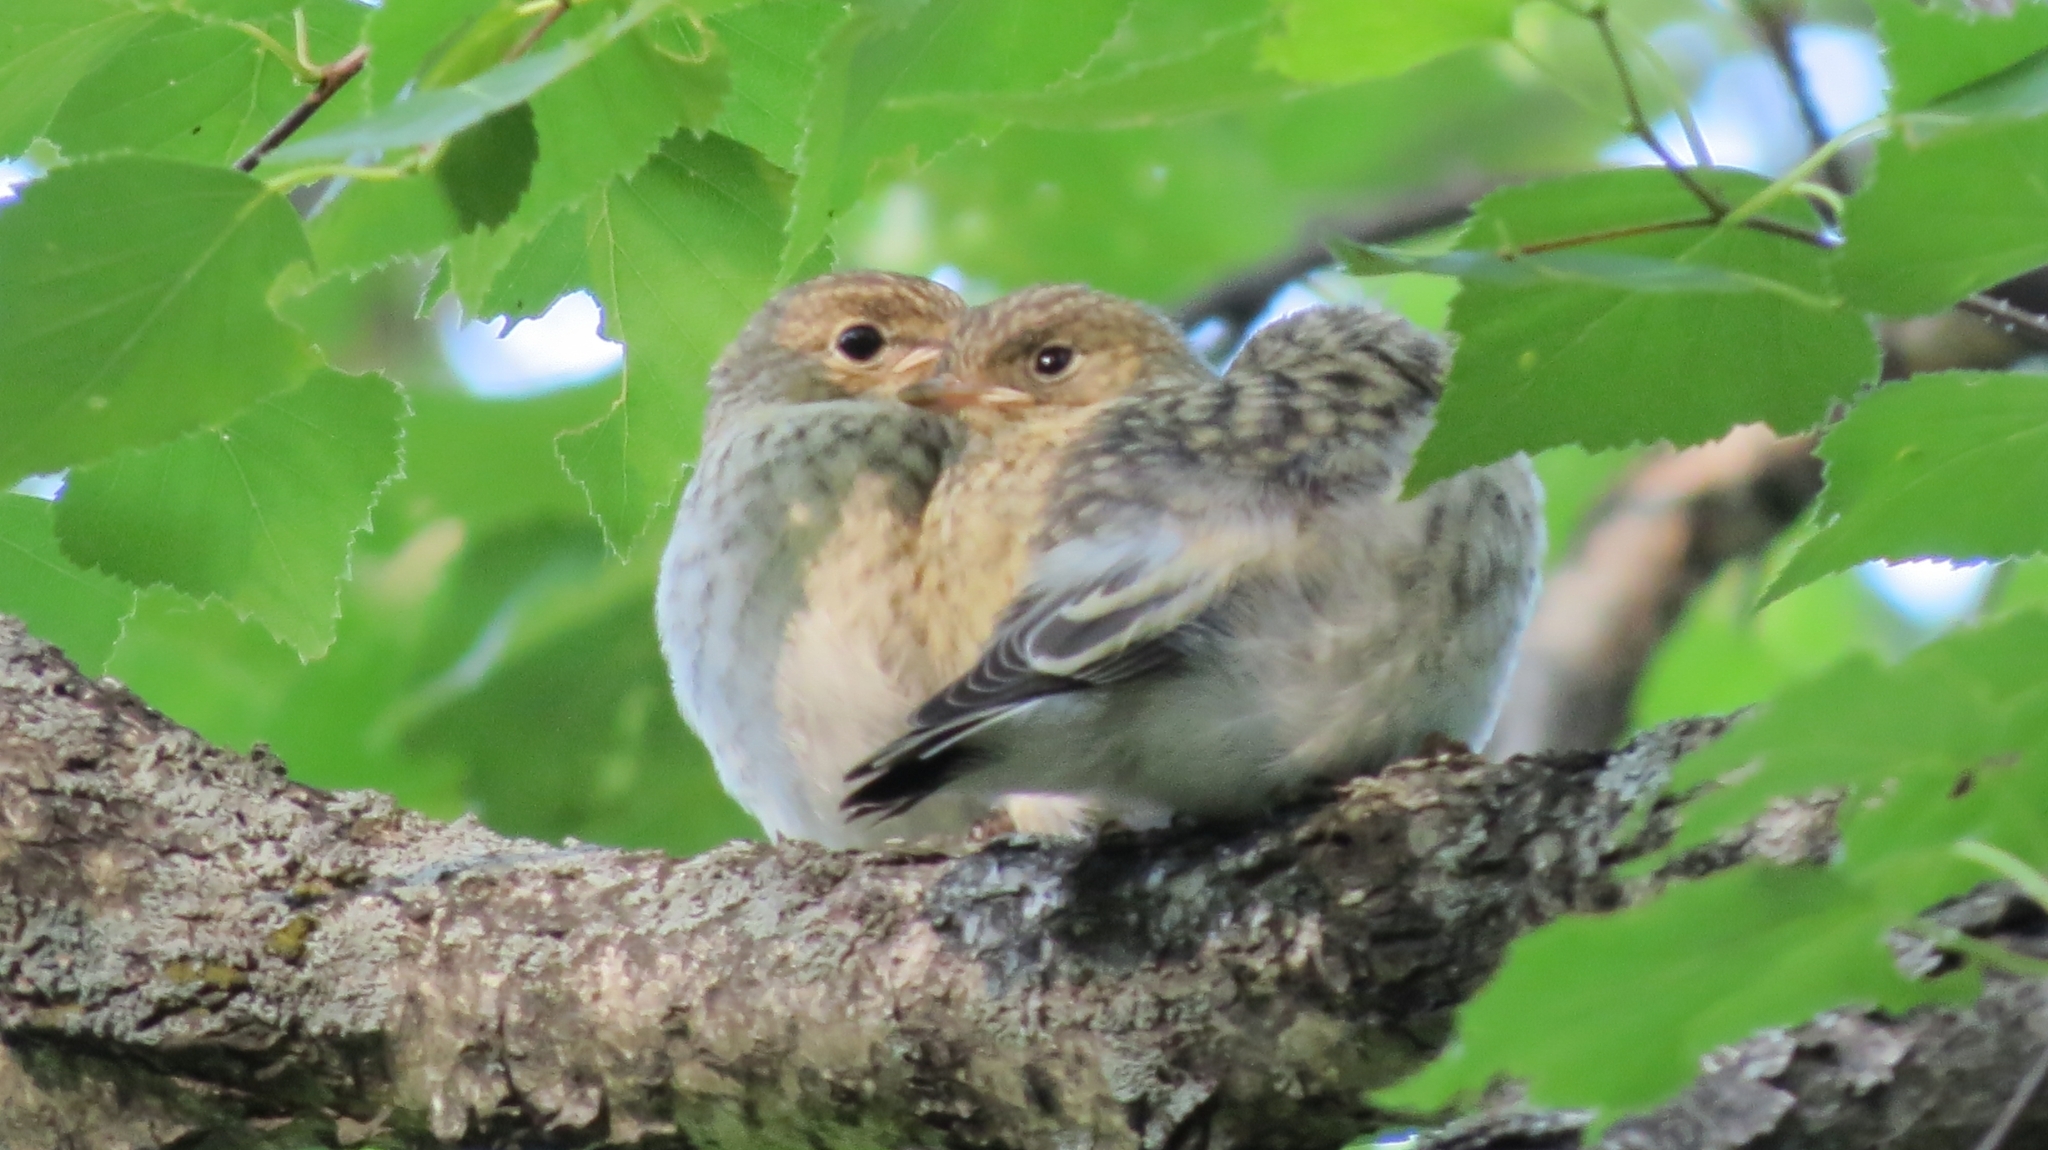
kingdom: Animalia
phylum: Chordata
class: Aves
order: Passeriformes
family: Muscicapidae
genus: Ficedula
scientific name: Ficedula hypoleuca
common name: European pied flycatcher
